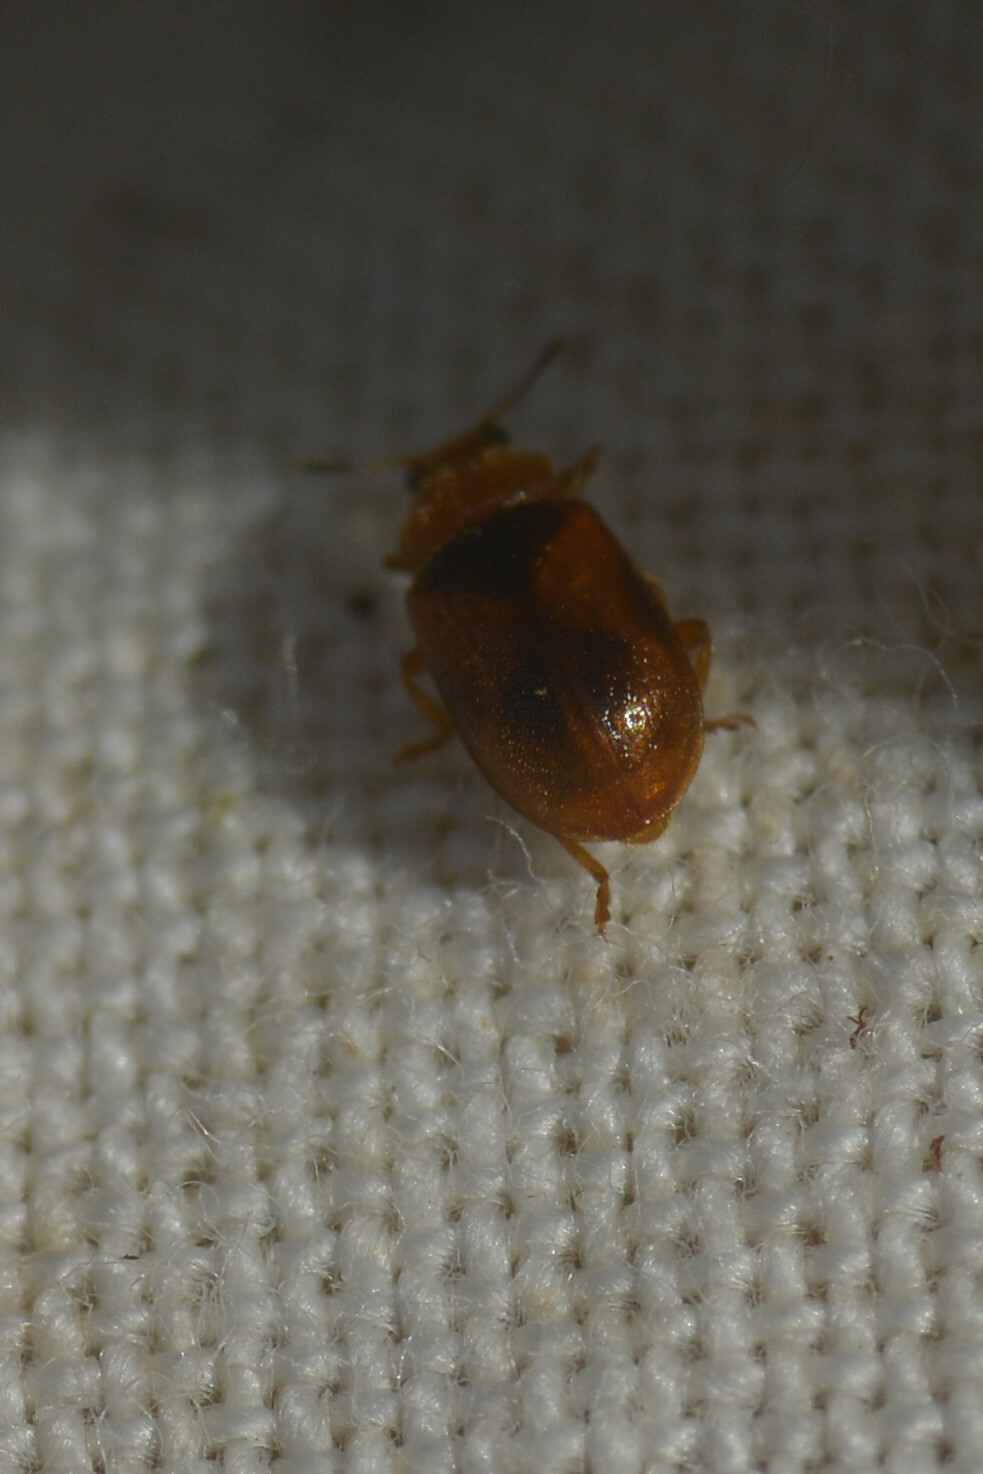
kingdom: Animalia
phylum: Arthropoda
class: Insecta
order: Coleoptera
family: Coccinellidae
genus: Coccidula
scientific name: Coccidula scutellata
